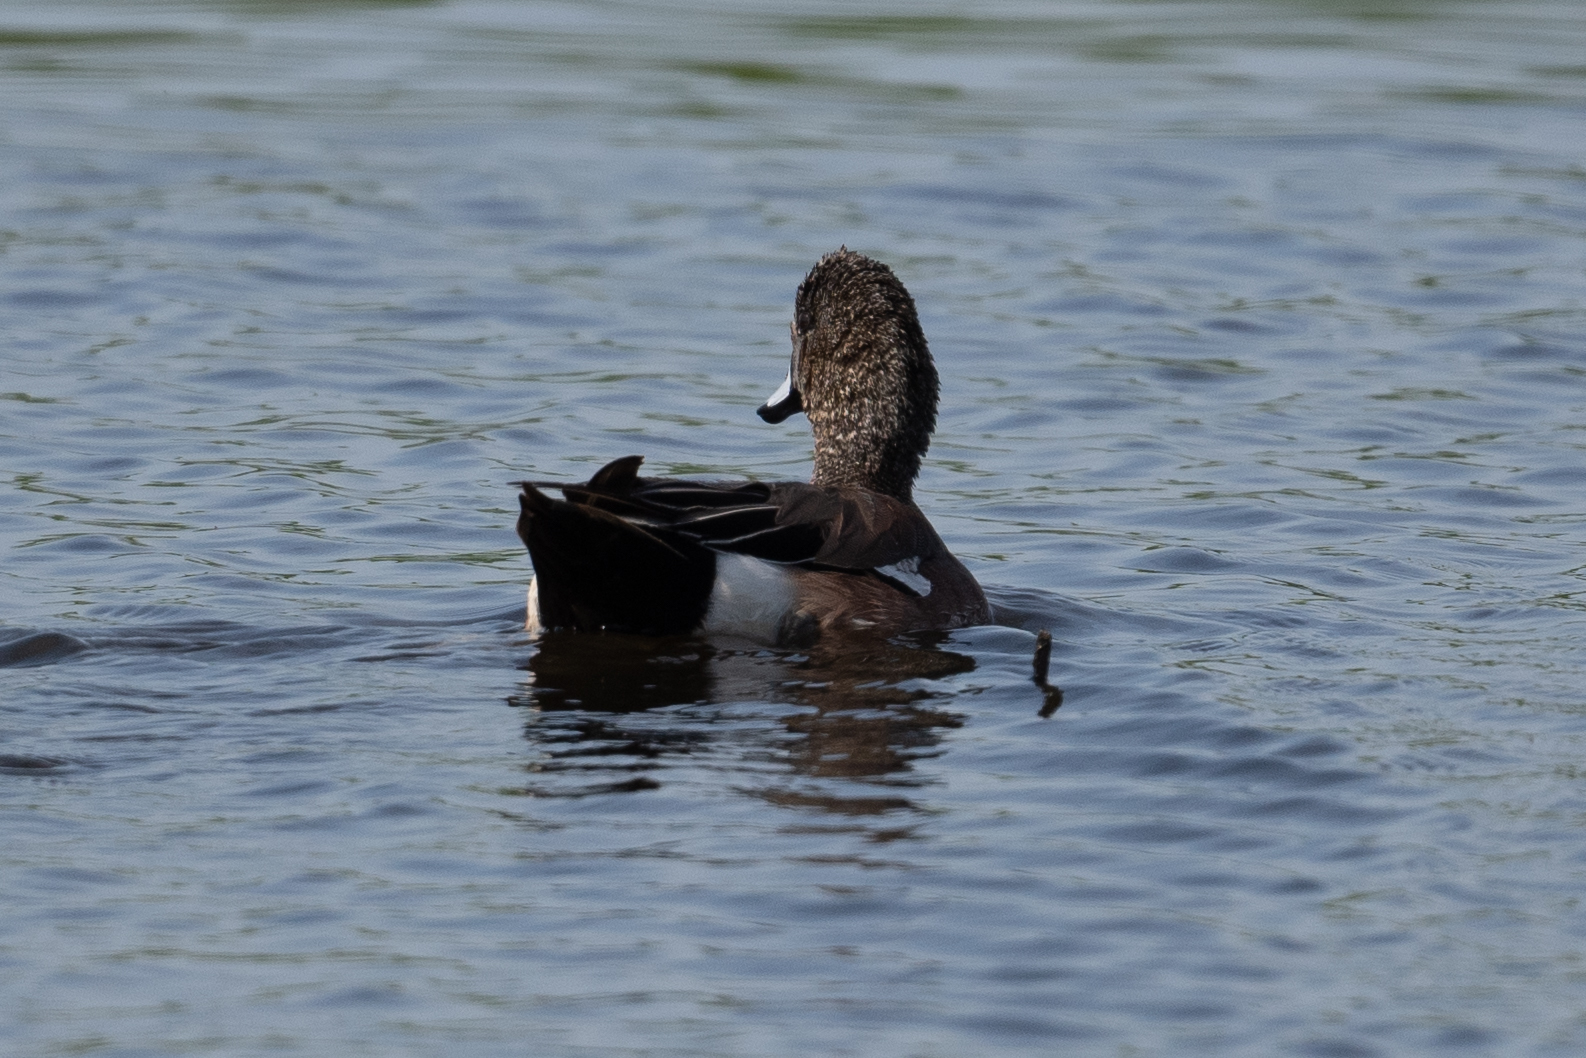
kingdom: Animalia
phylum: Chordata
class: Aves
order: Anseriformes
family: Anatidae
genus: Mareca
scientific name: Mareca americana
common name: American wigeon
